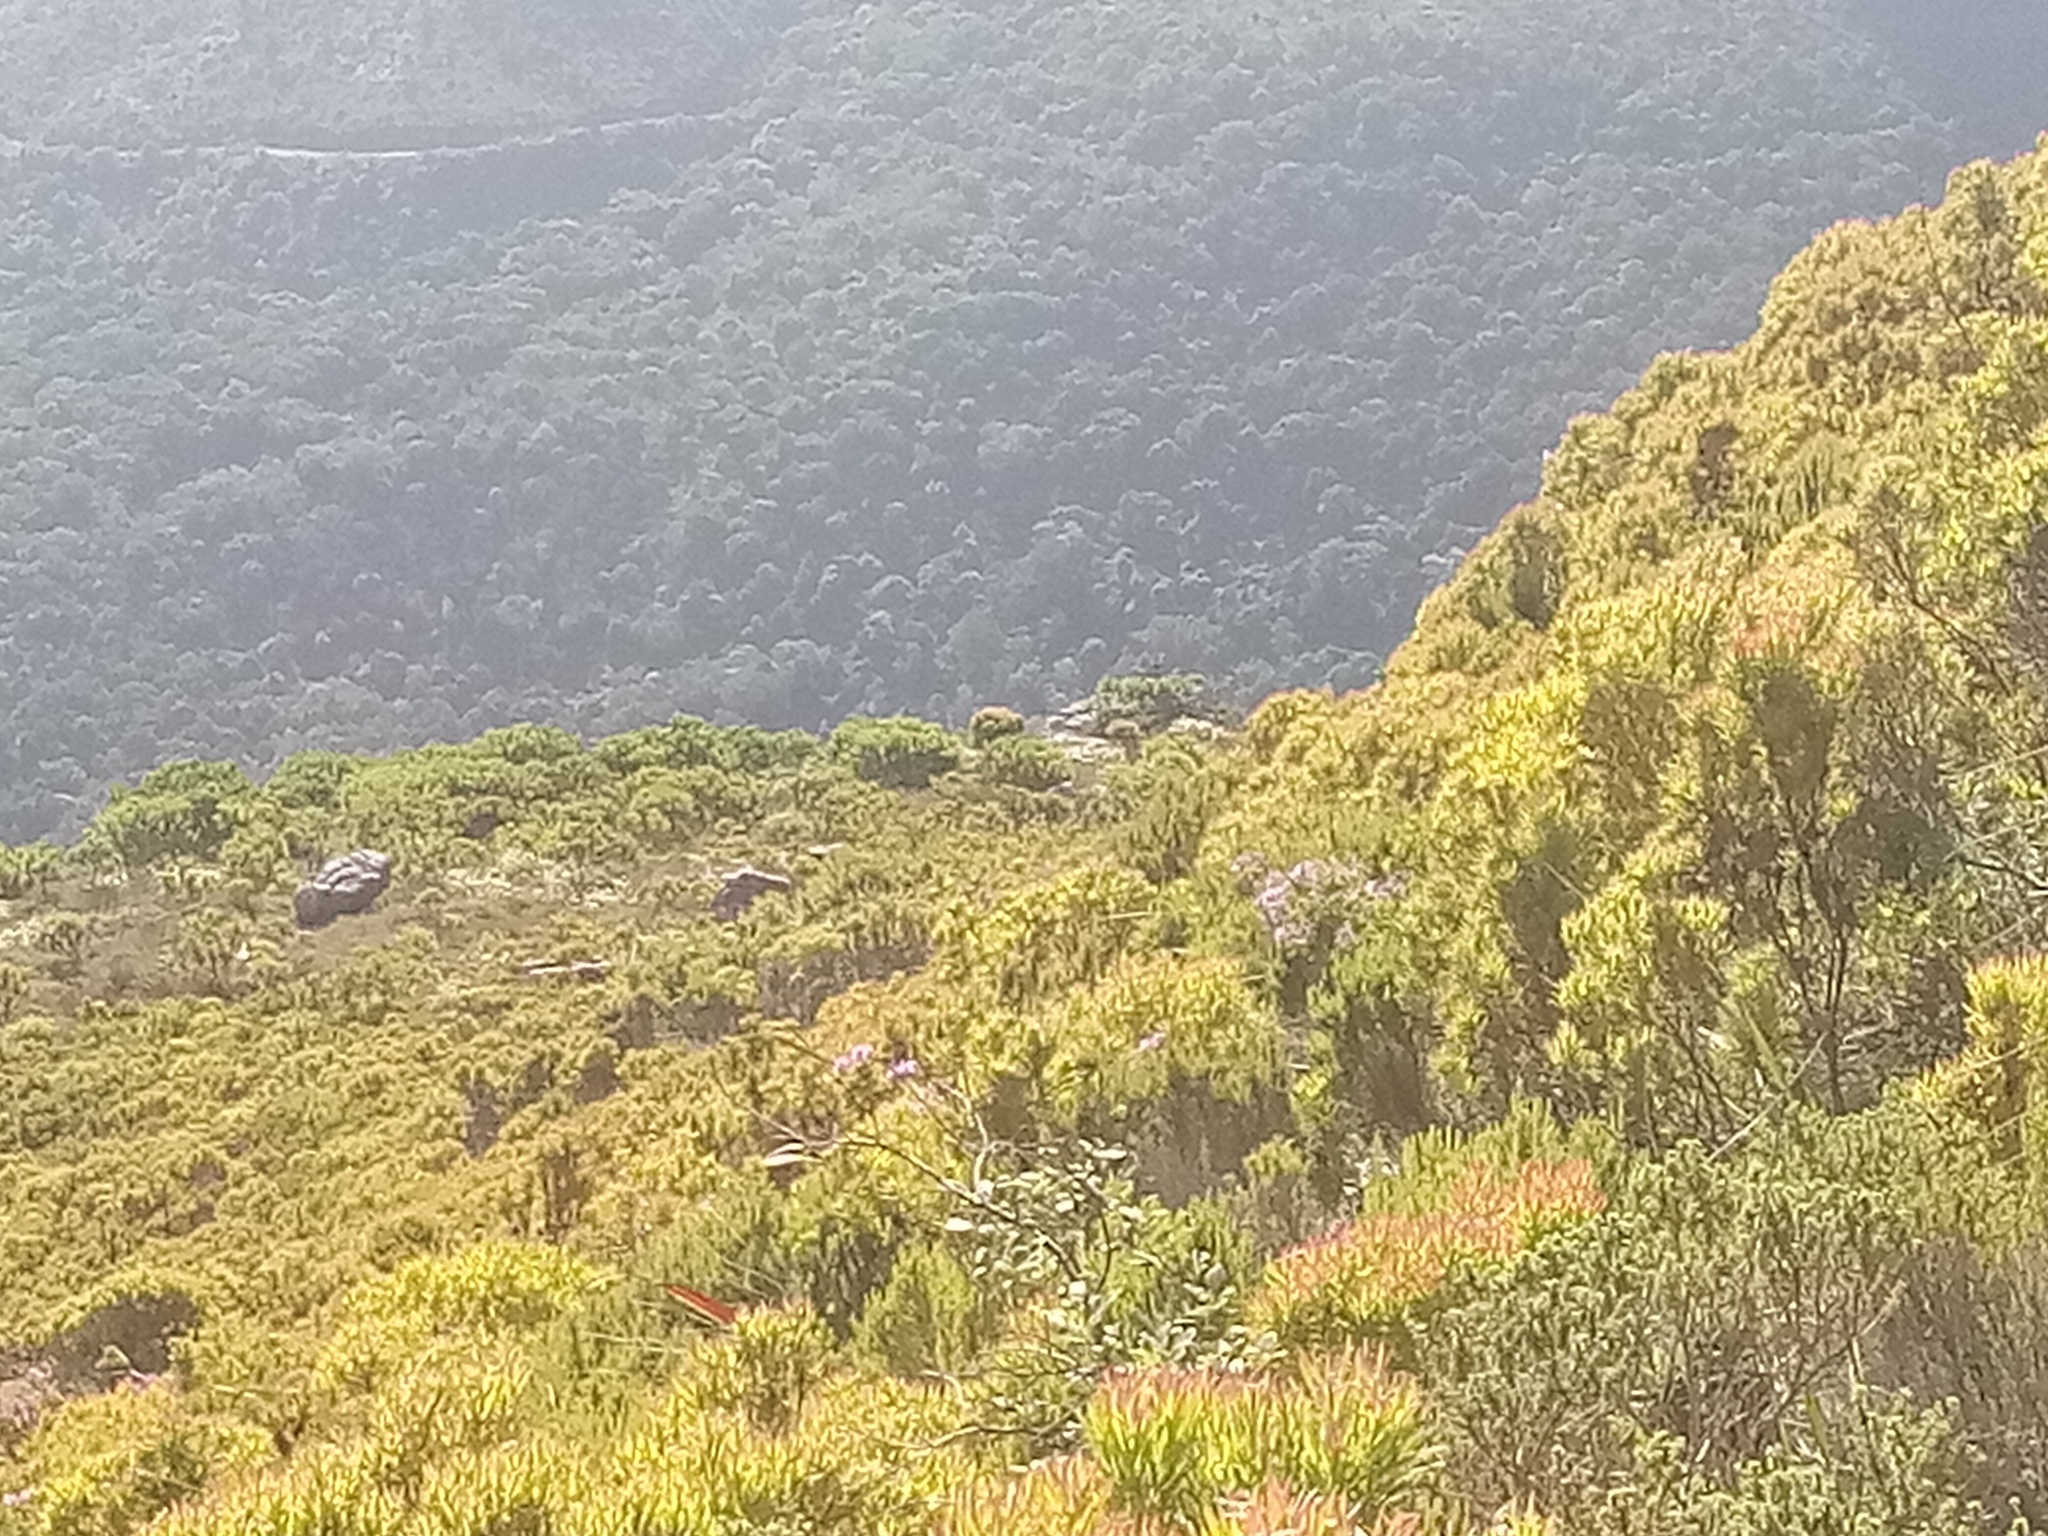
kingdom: Plantae
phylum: Tracheophyta
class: Magnoliopsida
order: Geraniales
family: Geraniaceae
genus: Pelargonium
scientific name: Pelargonium cucullatum
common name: Tree pelargonium
